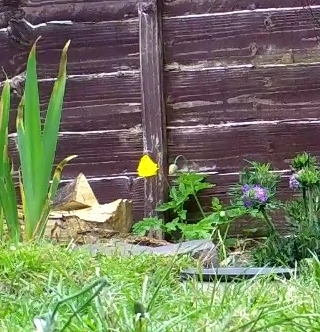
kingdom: Plantae
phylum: Tracheophyta
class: Magnoliopsida
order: Ranunculales
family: Papaveraceae
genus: Papaver
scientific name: Papaver cambricum
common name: Poppy
